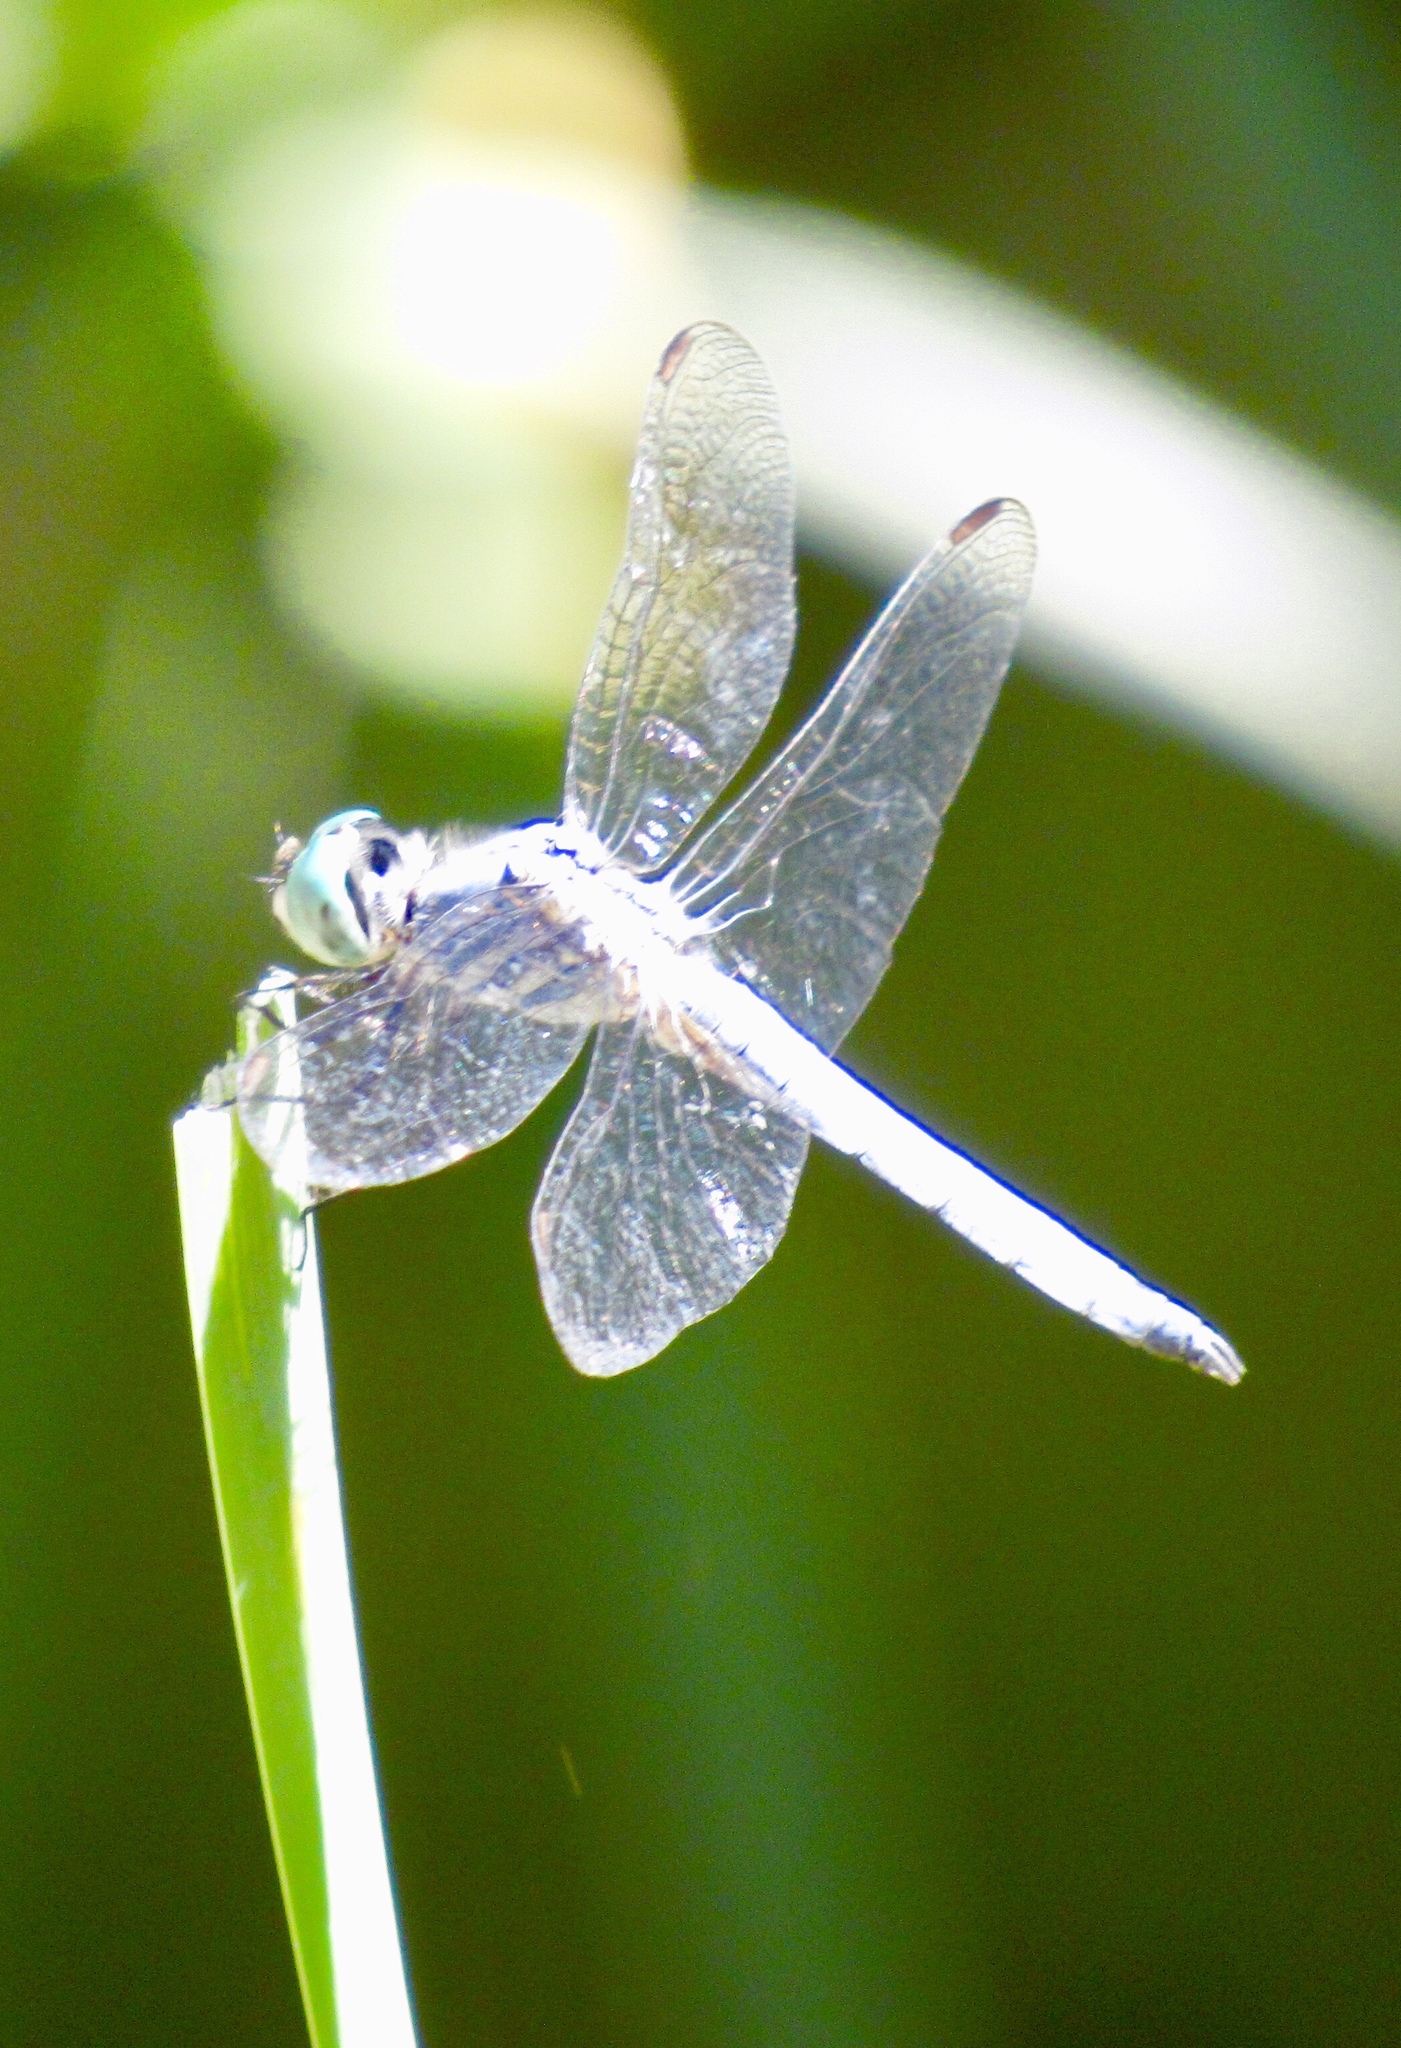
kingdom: Animalia
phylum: Arthropoda
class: Insecta
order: Odonata
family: Libellulidae
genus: Pachydiplax
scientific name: Pachydiplax longipennis
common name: Blue dasher
